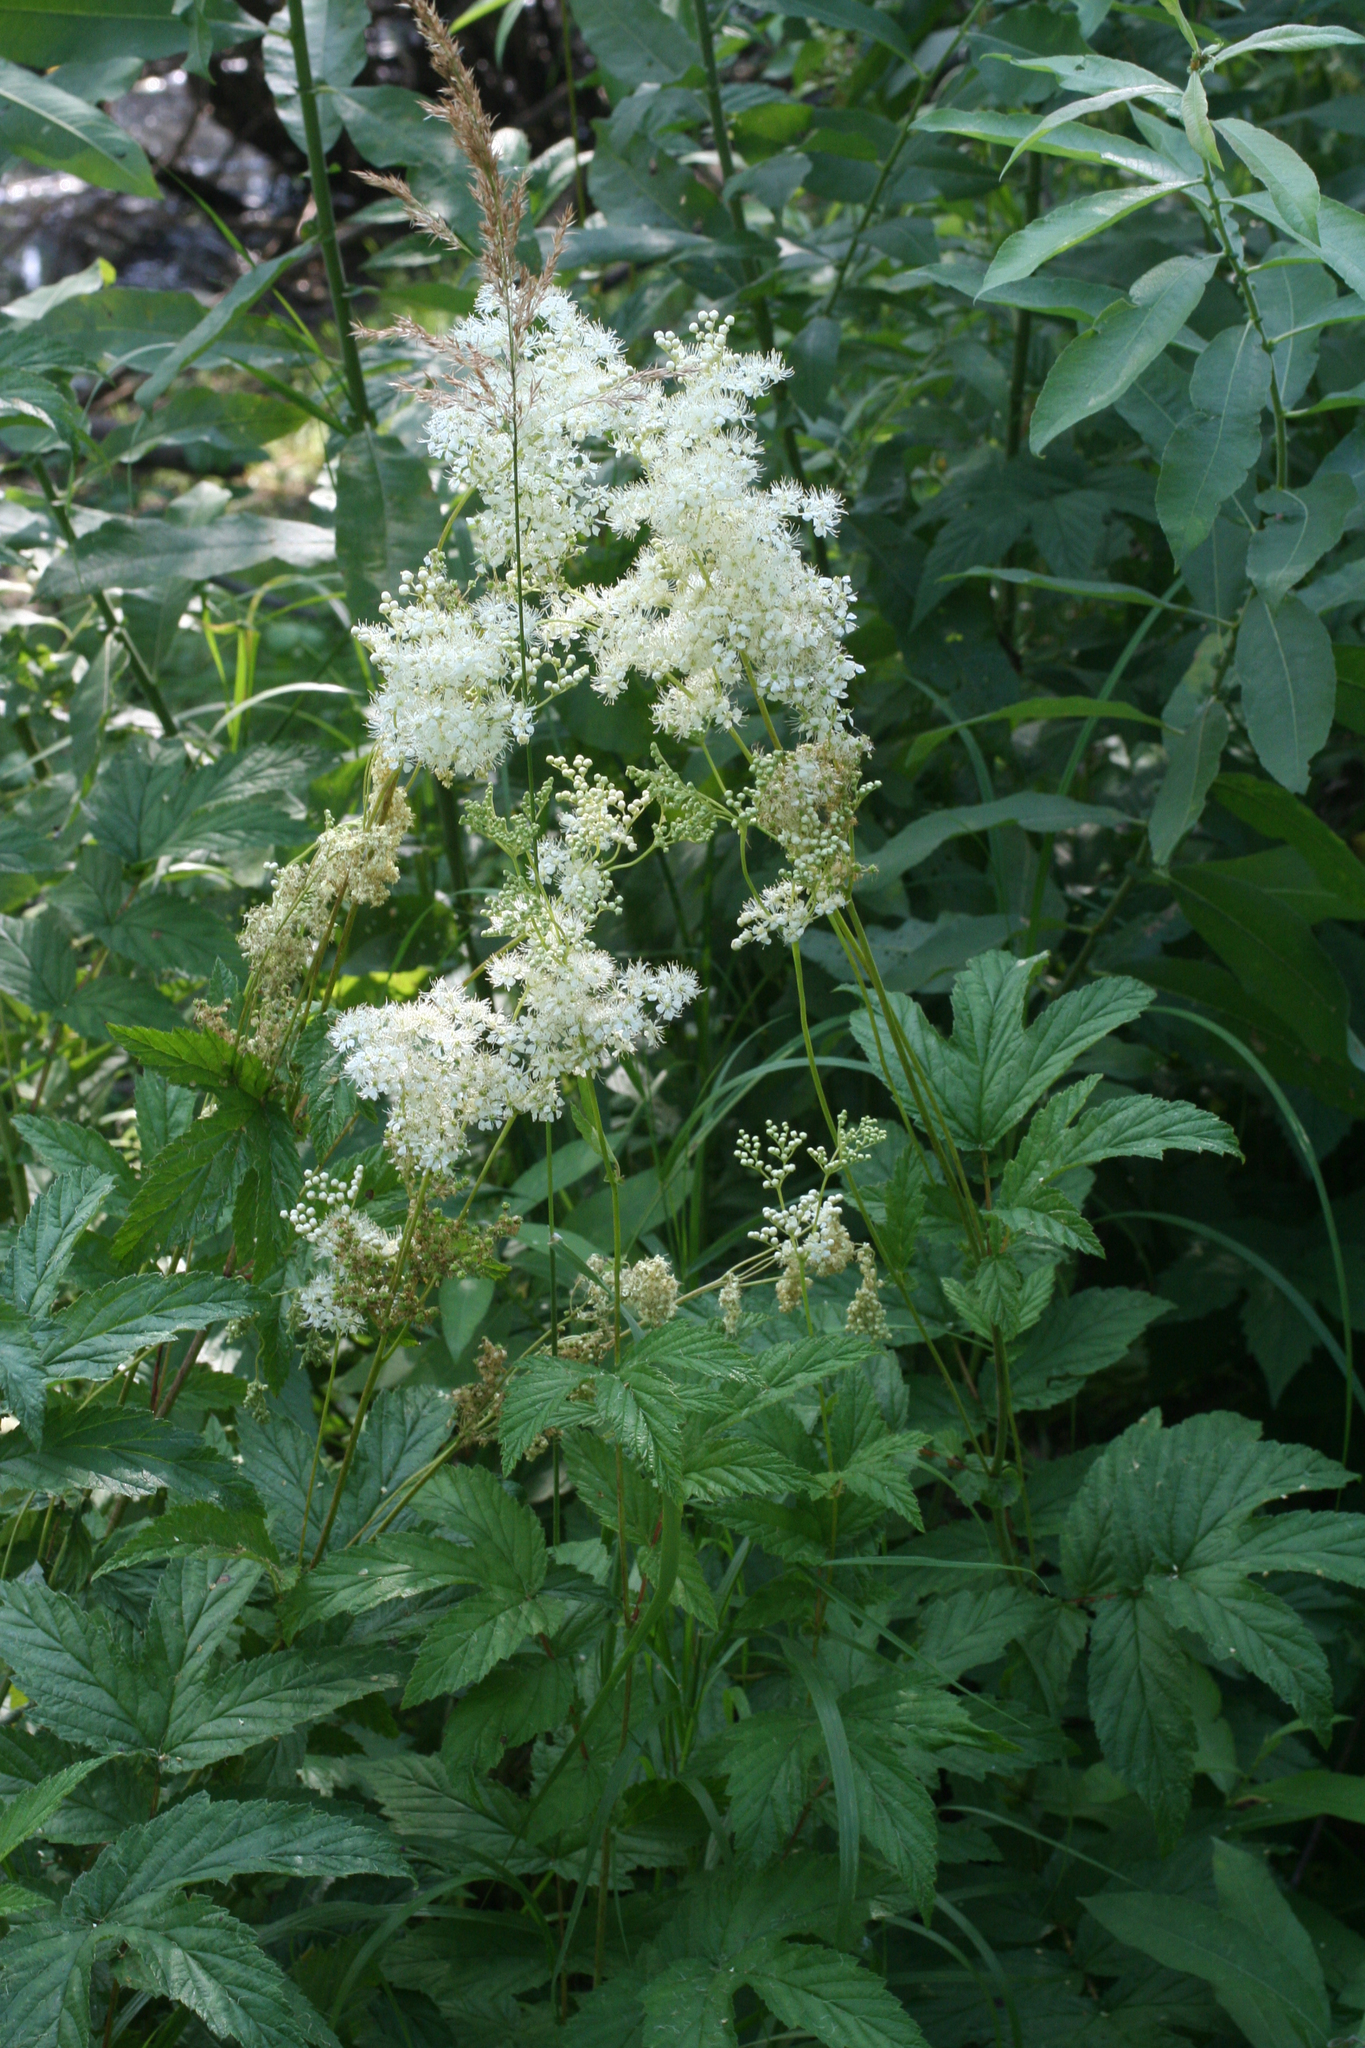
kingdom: Plantae
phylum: Tracheophyta
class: Magnoliopsida
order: Rosales
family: Rosaceae
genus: Filipendula
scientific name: Filipendula ulmaria
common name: Meadowsweet
